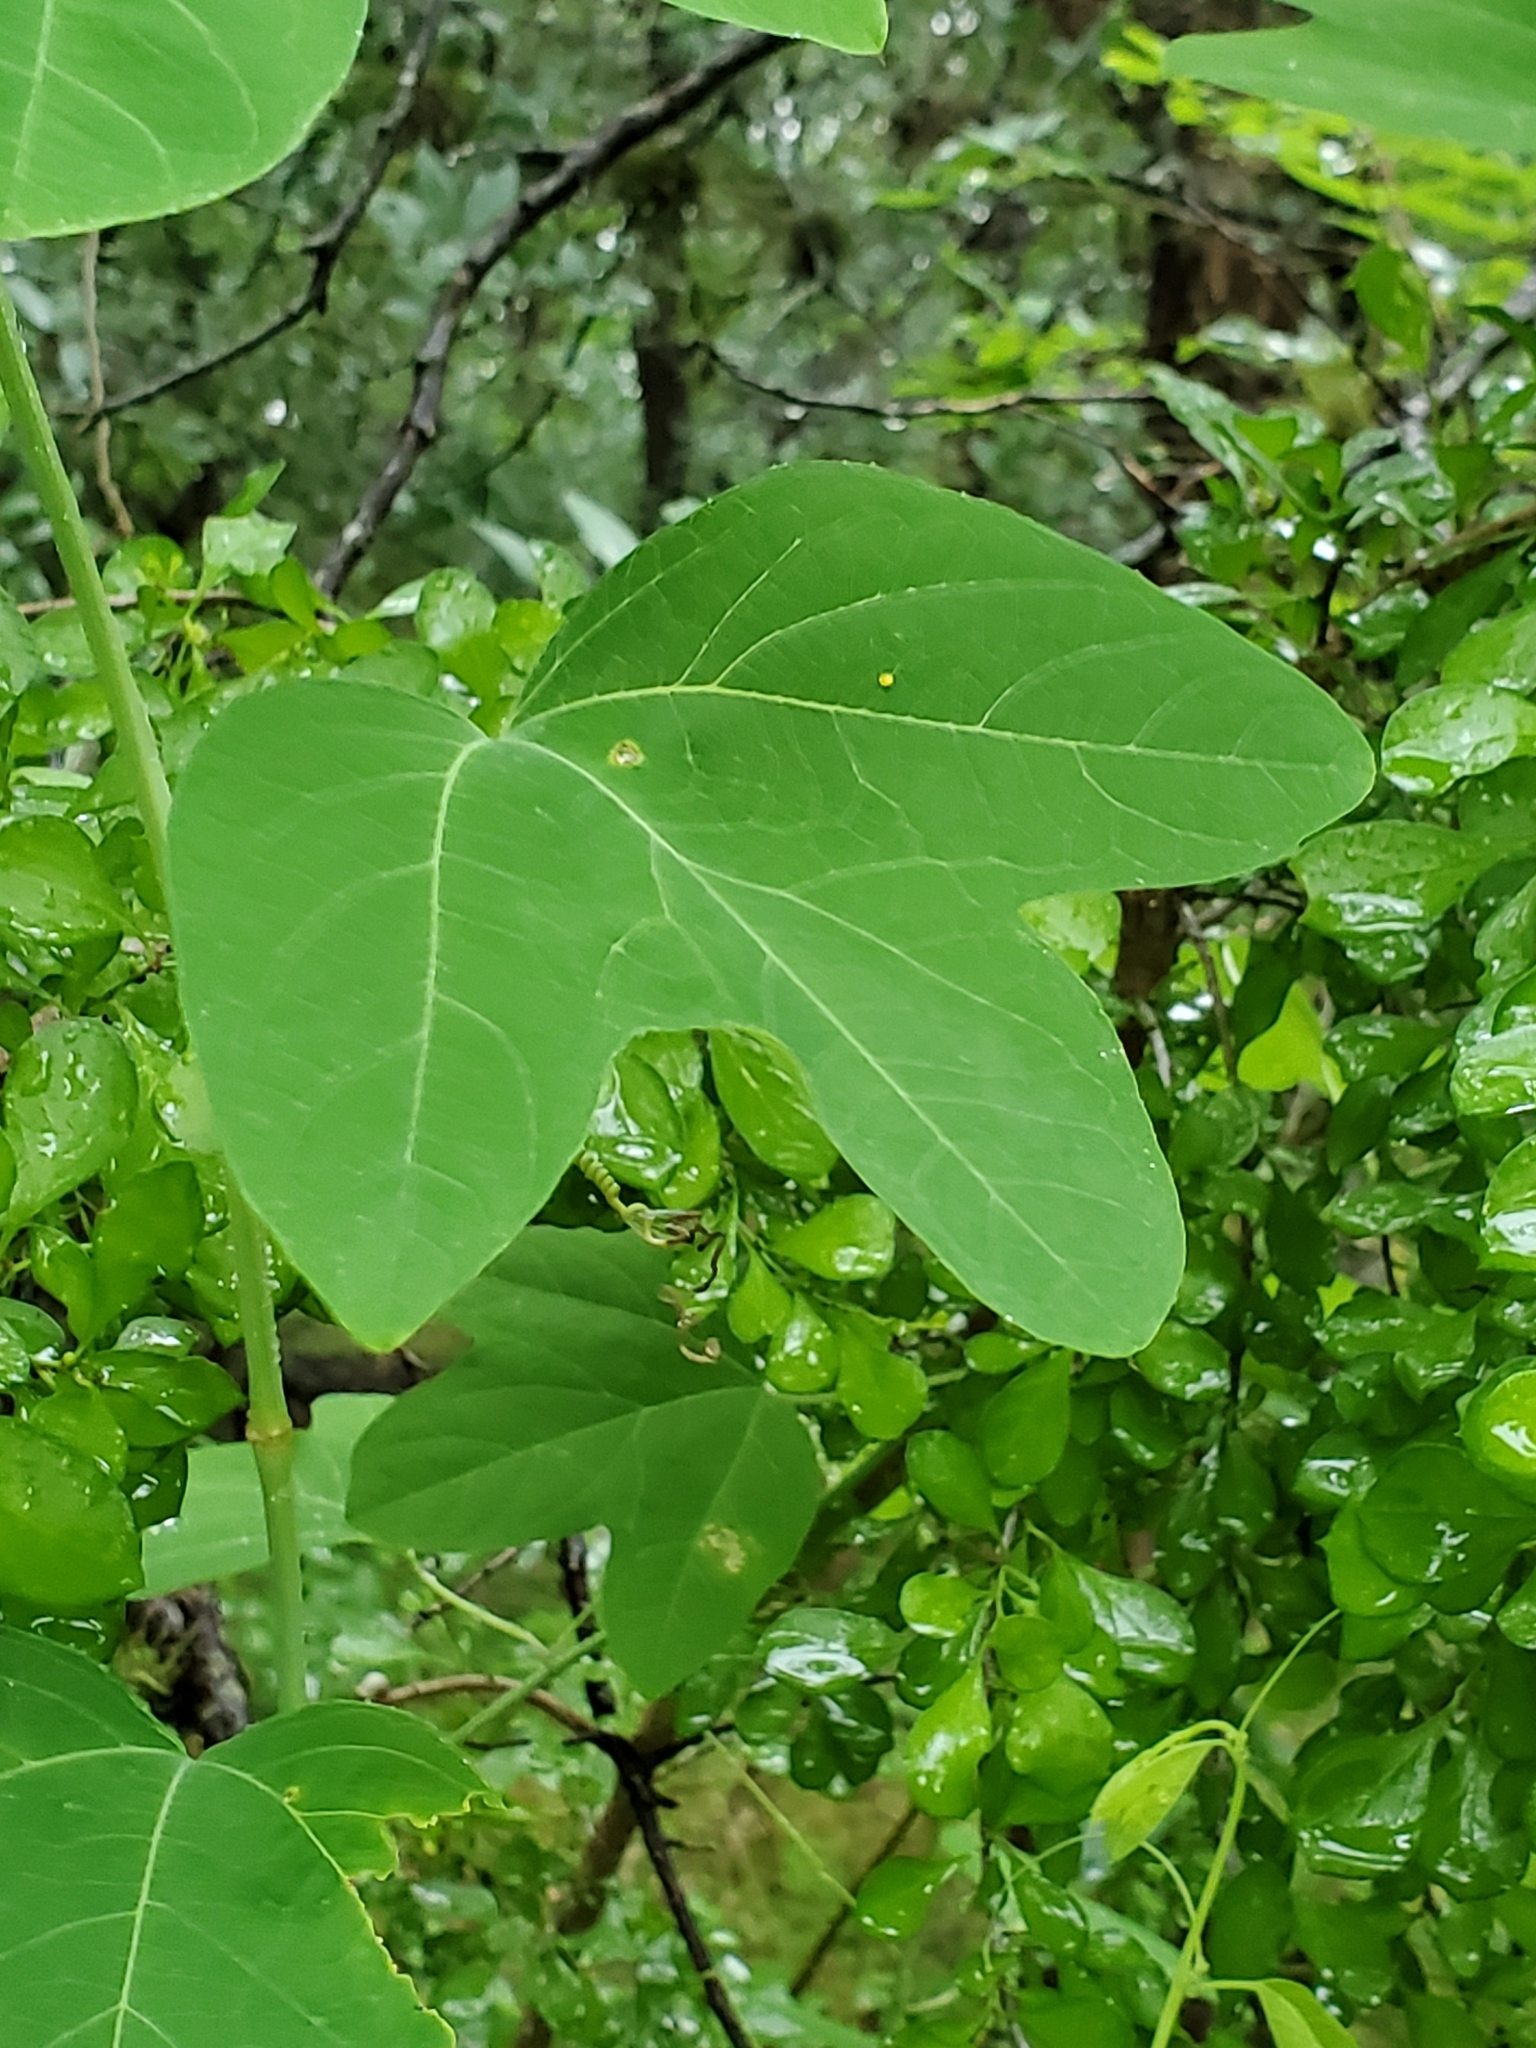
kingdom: Plantae
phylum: Tracheophyta
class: Magnoliopsida
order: Malpighiales
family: Passifloraceae
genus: Passiflora
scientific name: Passiflora affinis
